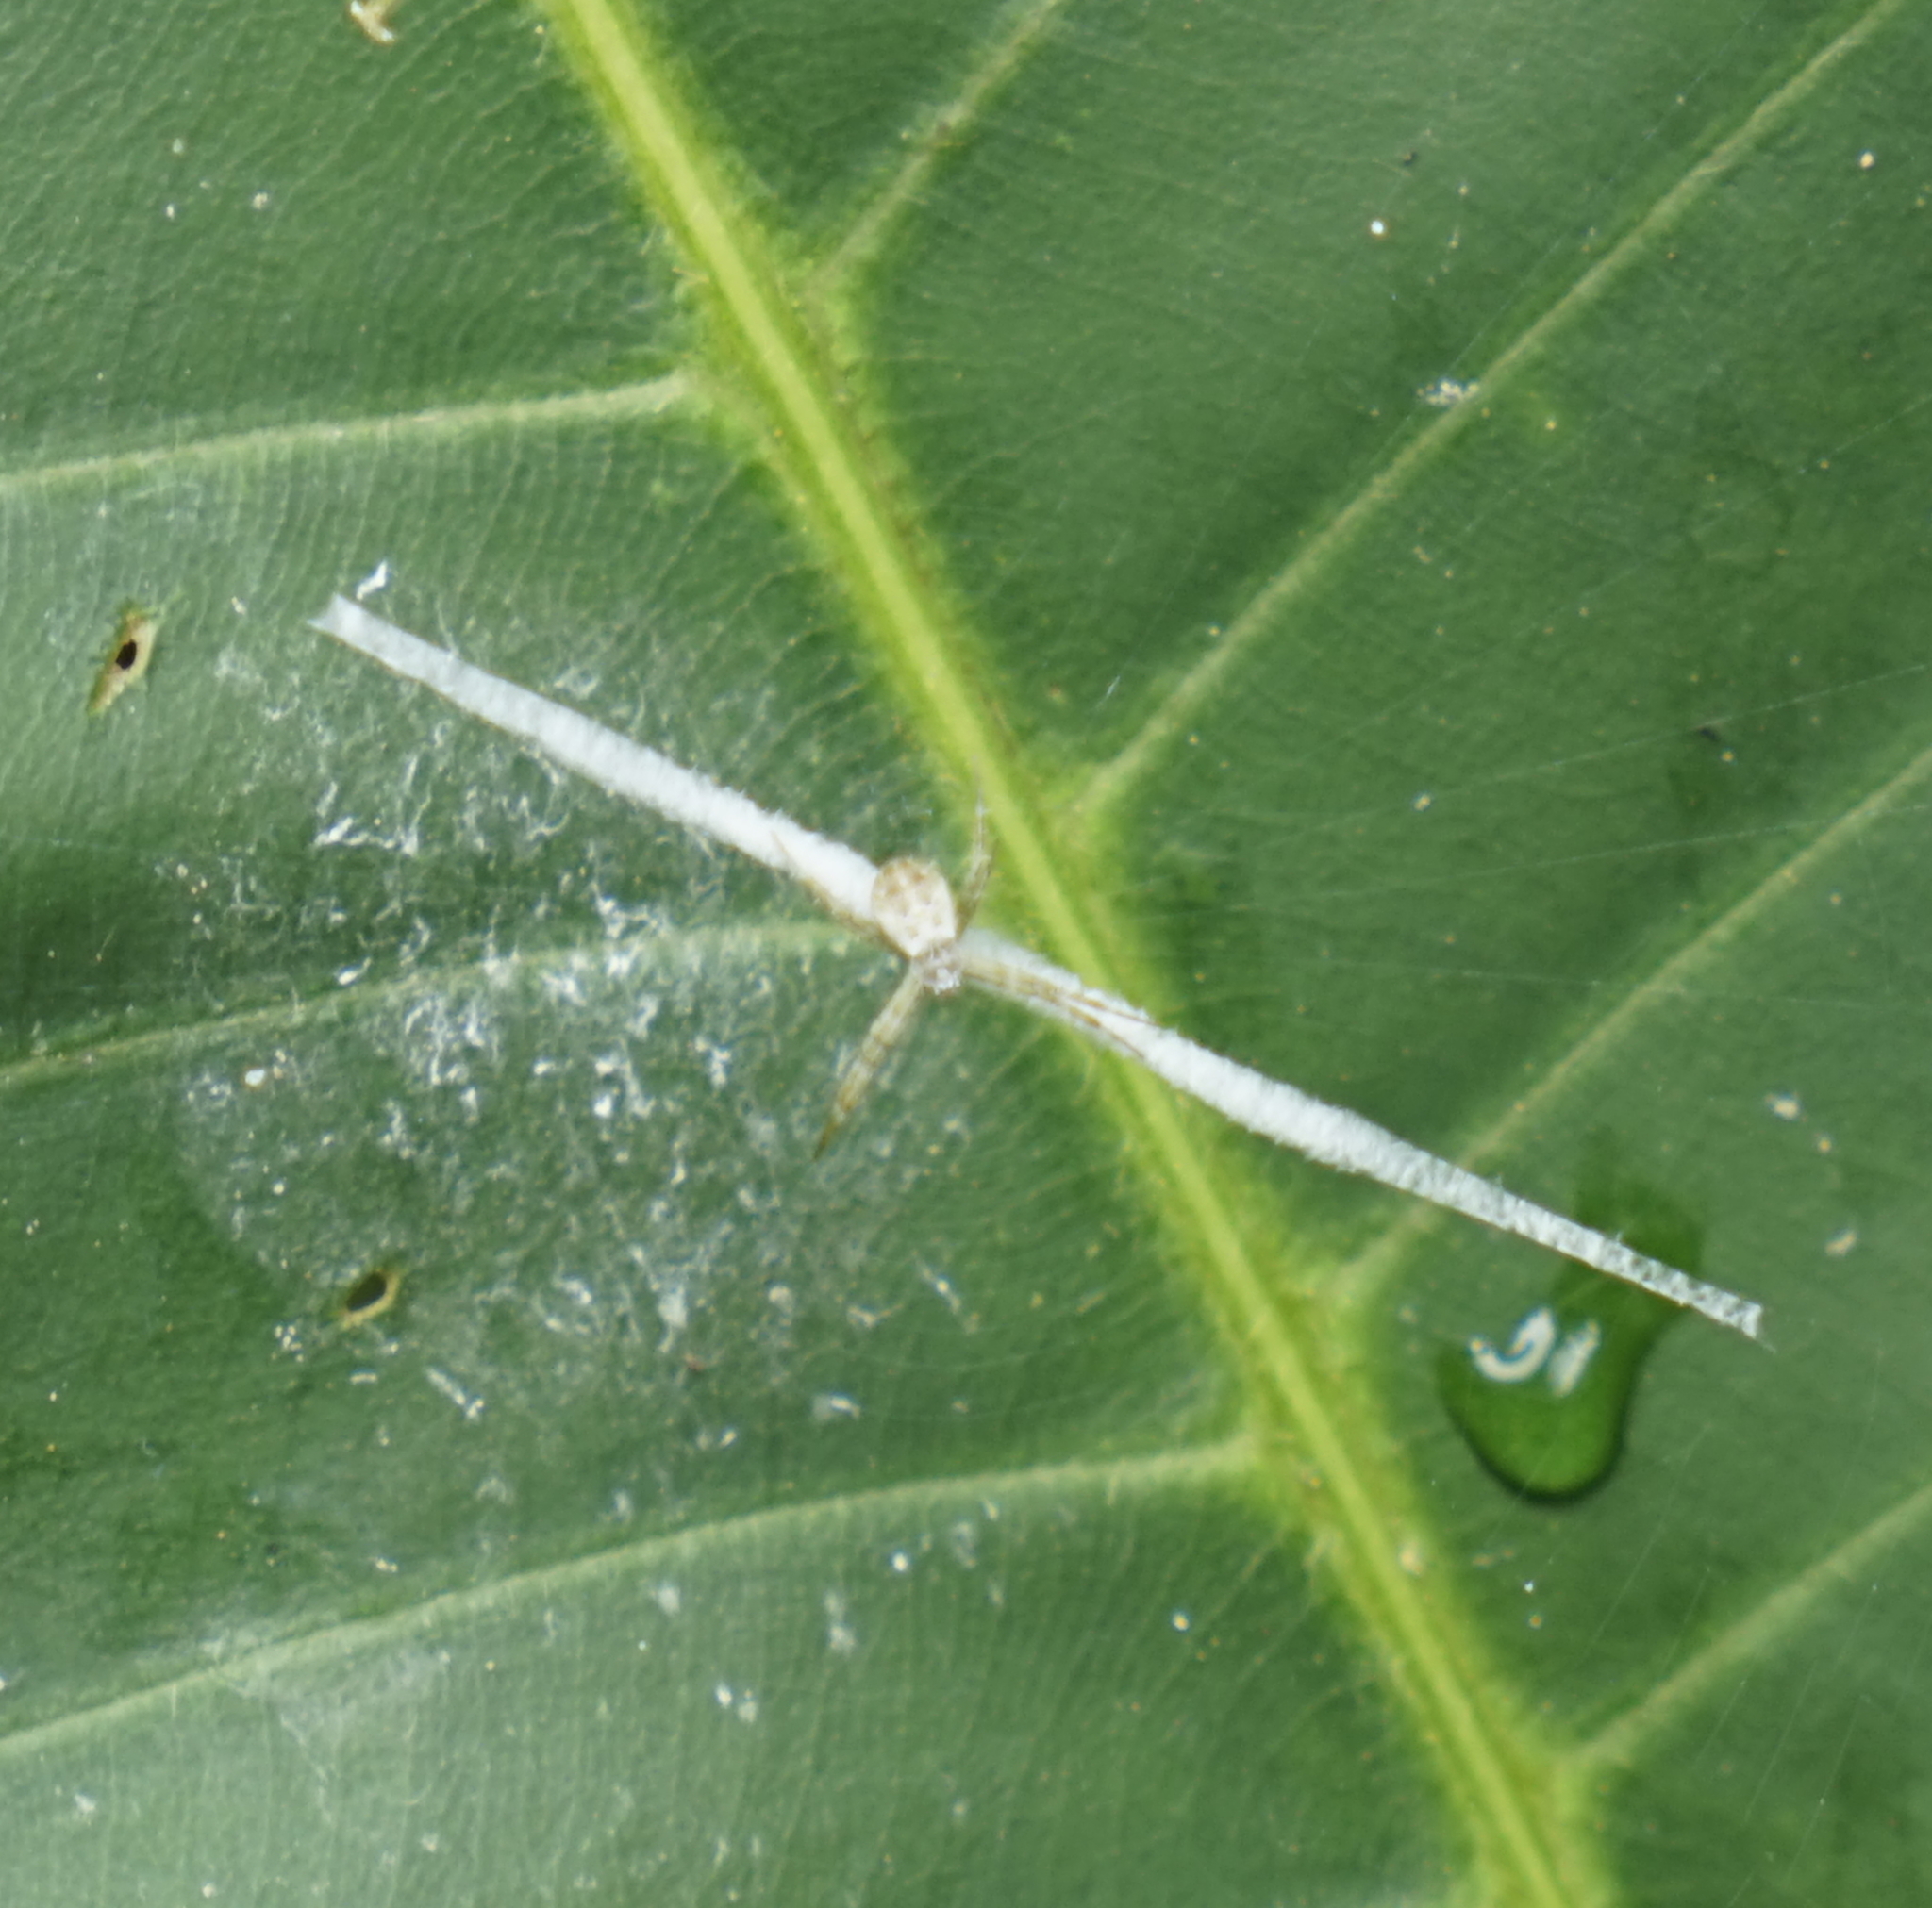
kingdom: Animalia
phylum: Arthropoda
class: Arachnida
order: Araneae
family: Araneidae
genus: Argiope
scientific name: Argiope
